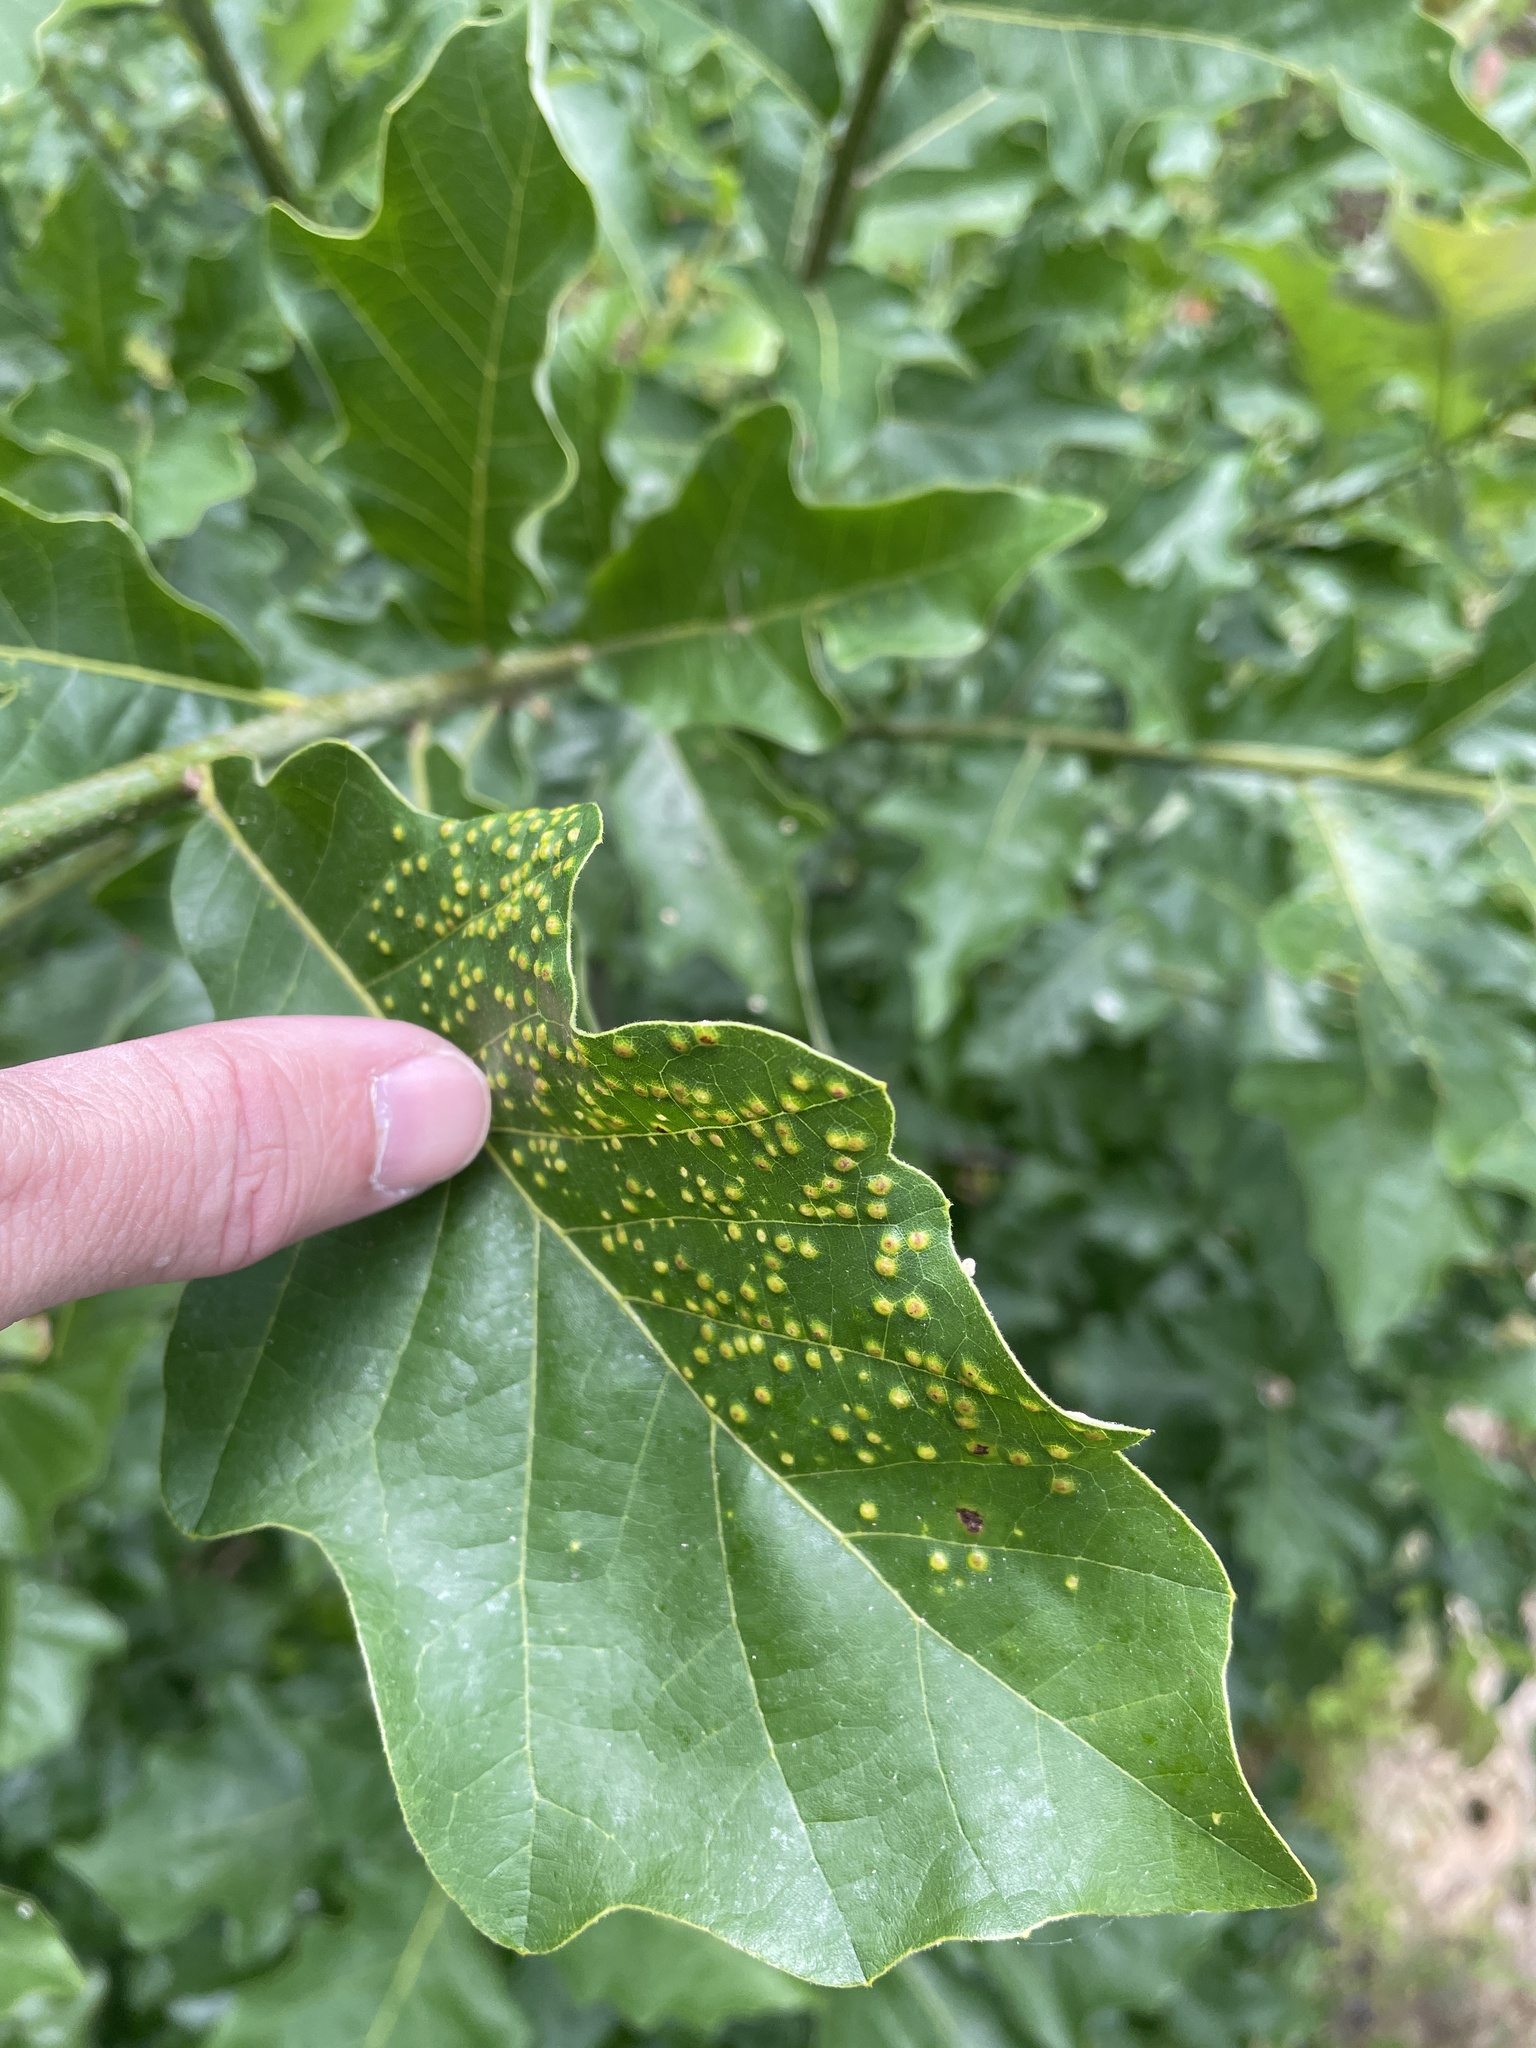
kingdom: Animalia
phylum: Arthropoda
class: Insecta
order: Hymenoptera
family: Cynipidae
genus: Neuroterus
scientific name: Neuroterus
